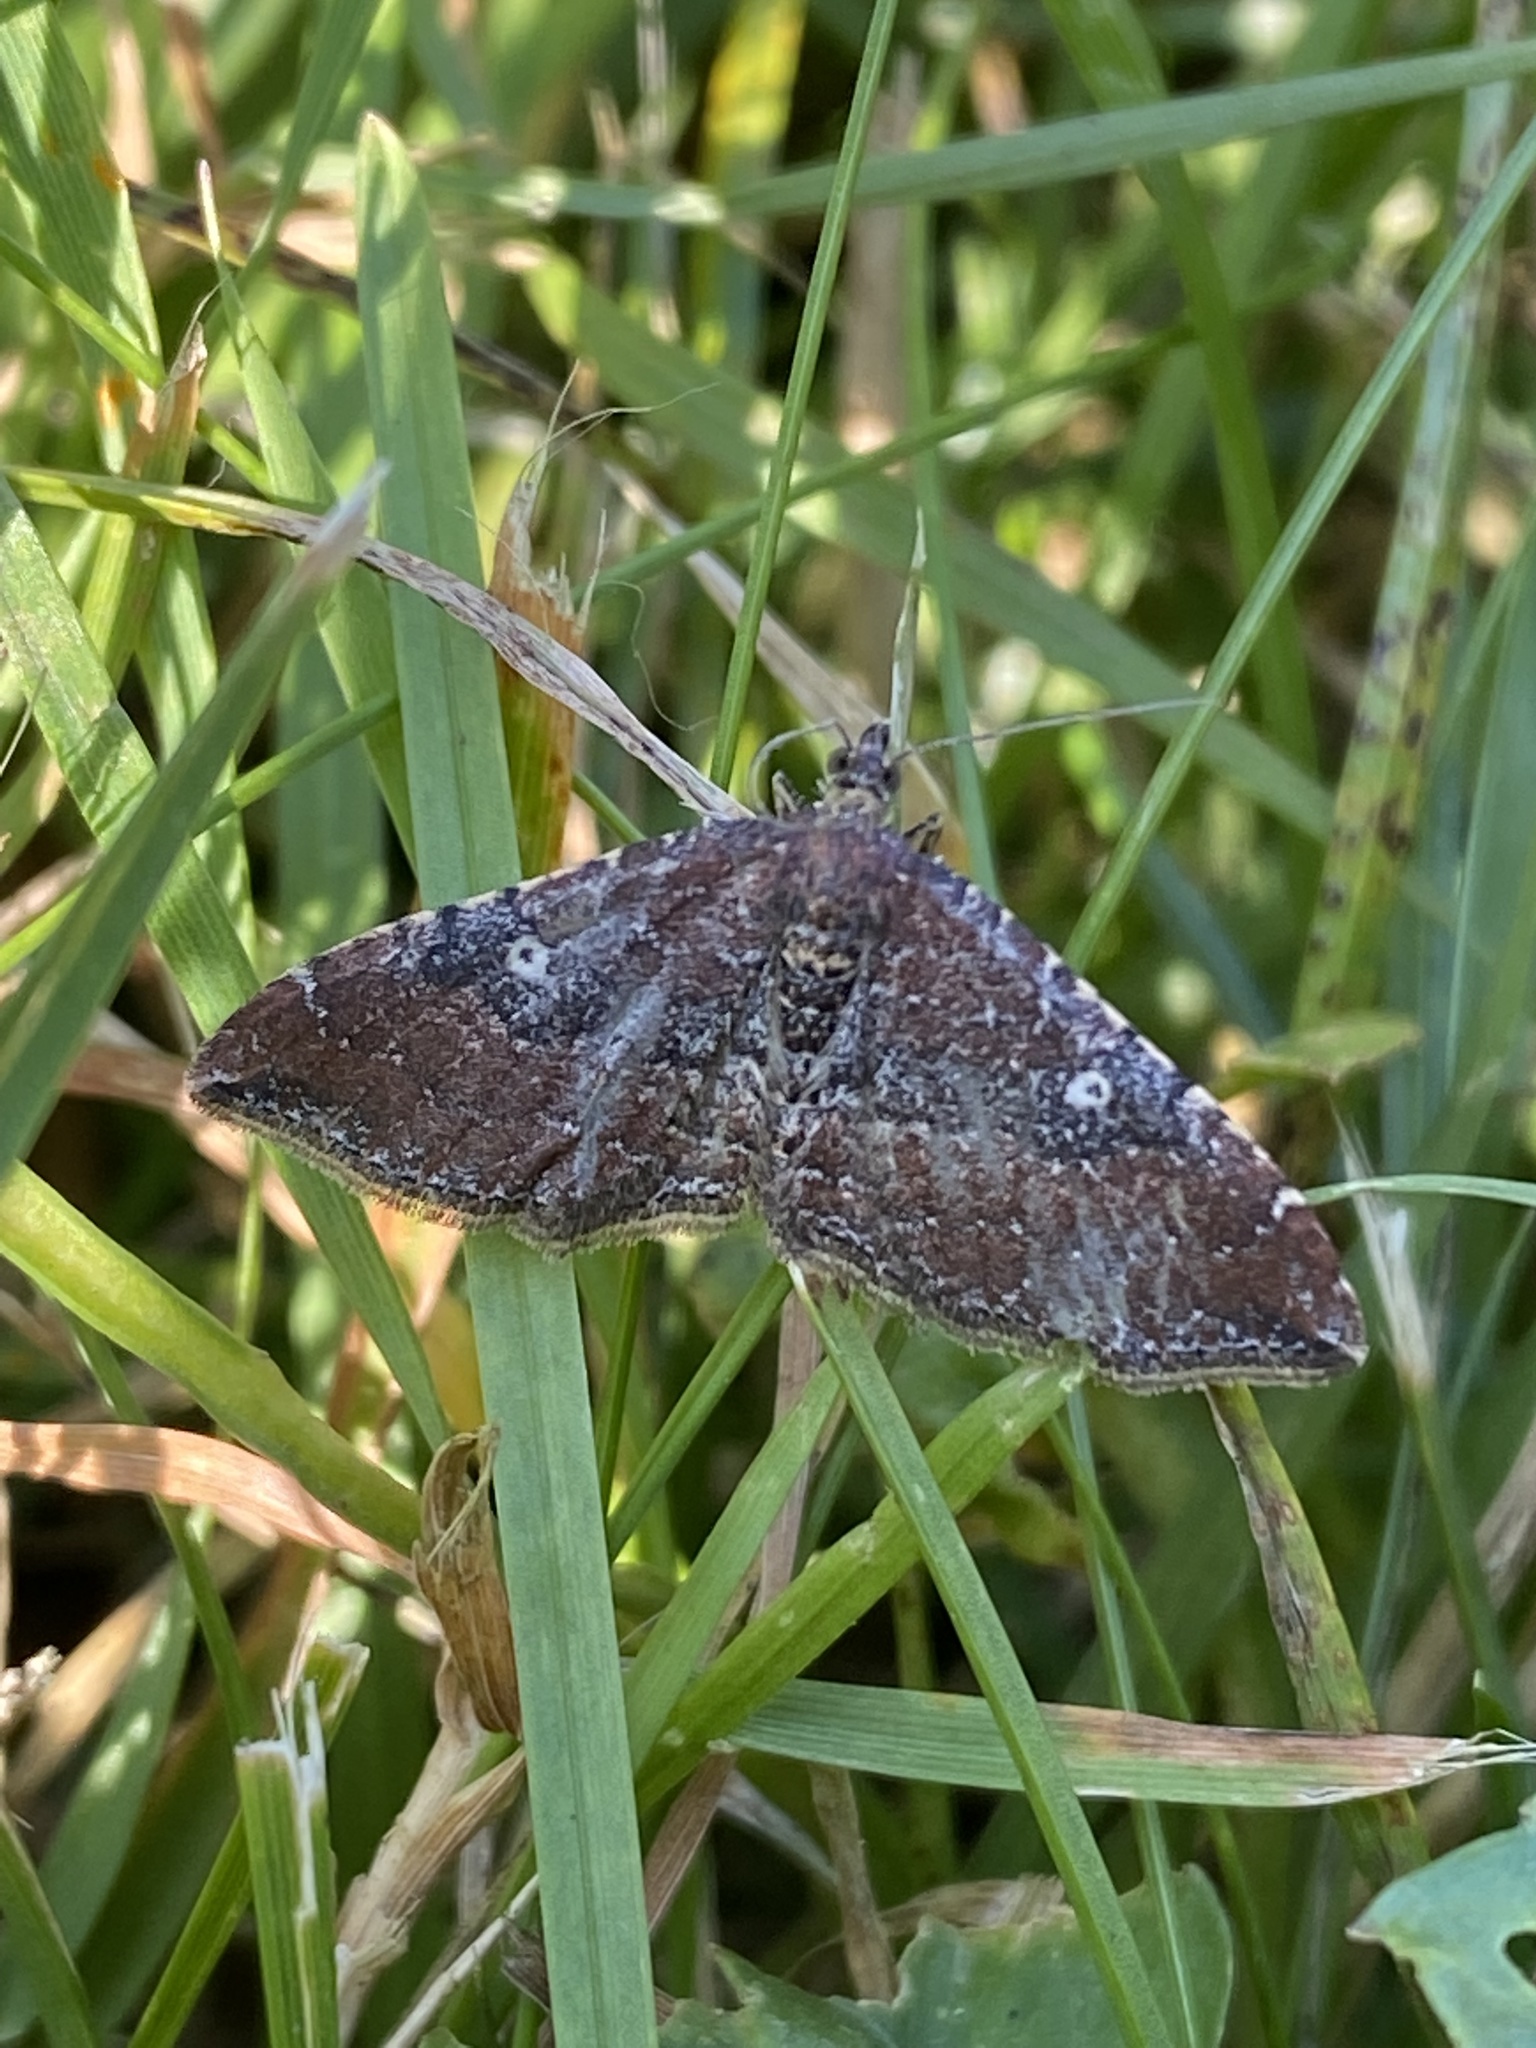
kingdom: Animalia
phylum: Arthropoda
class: Insecta
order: Lepidoptera
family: Geometridae
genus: Orthonama
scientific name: Orthonama obstipata
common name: The gem
